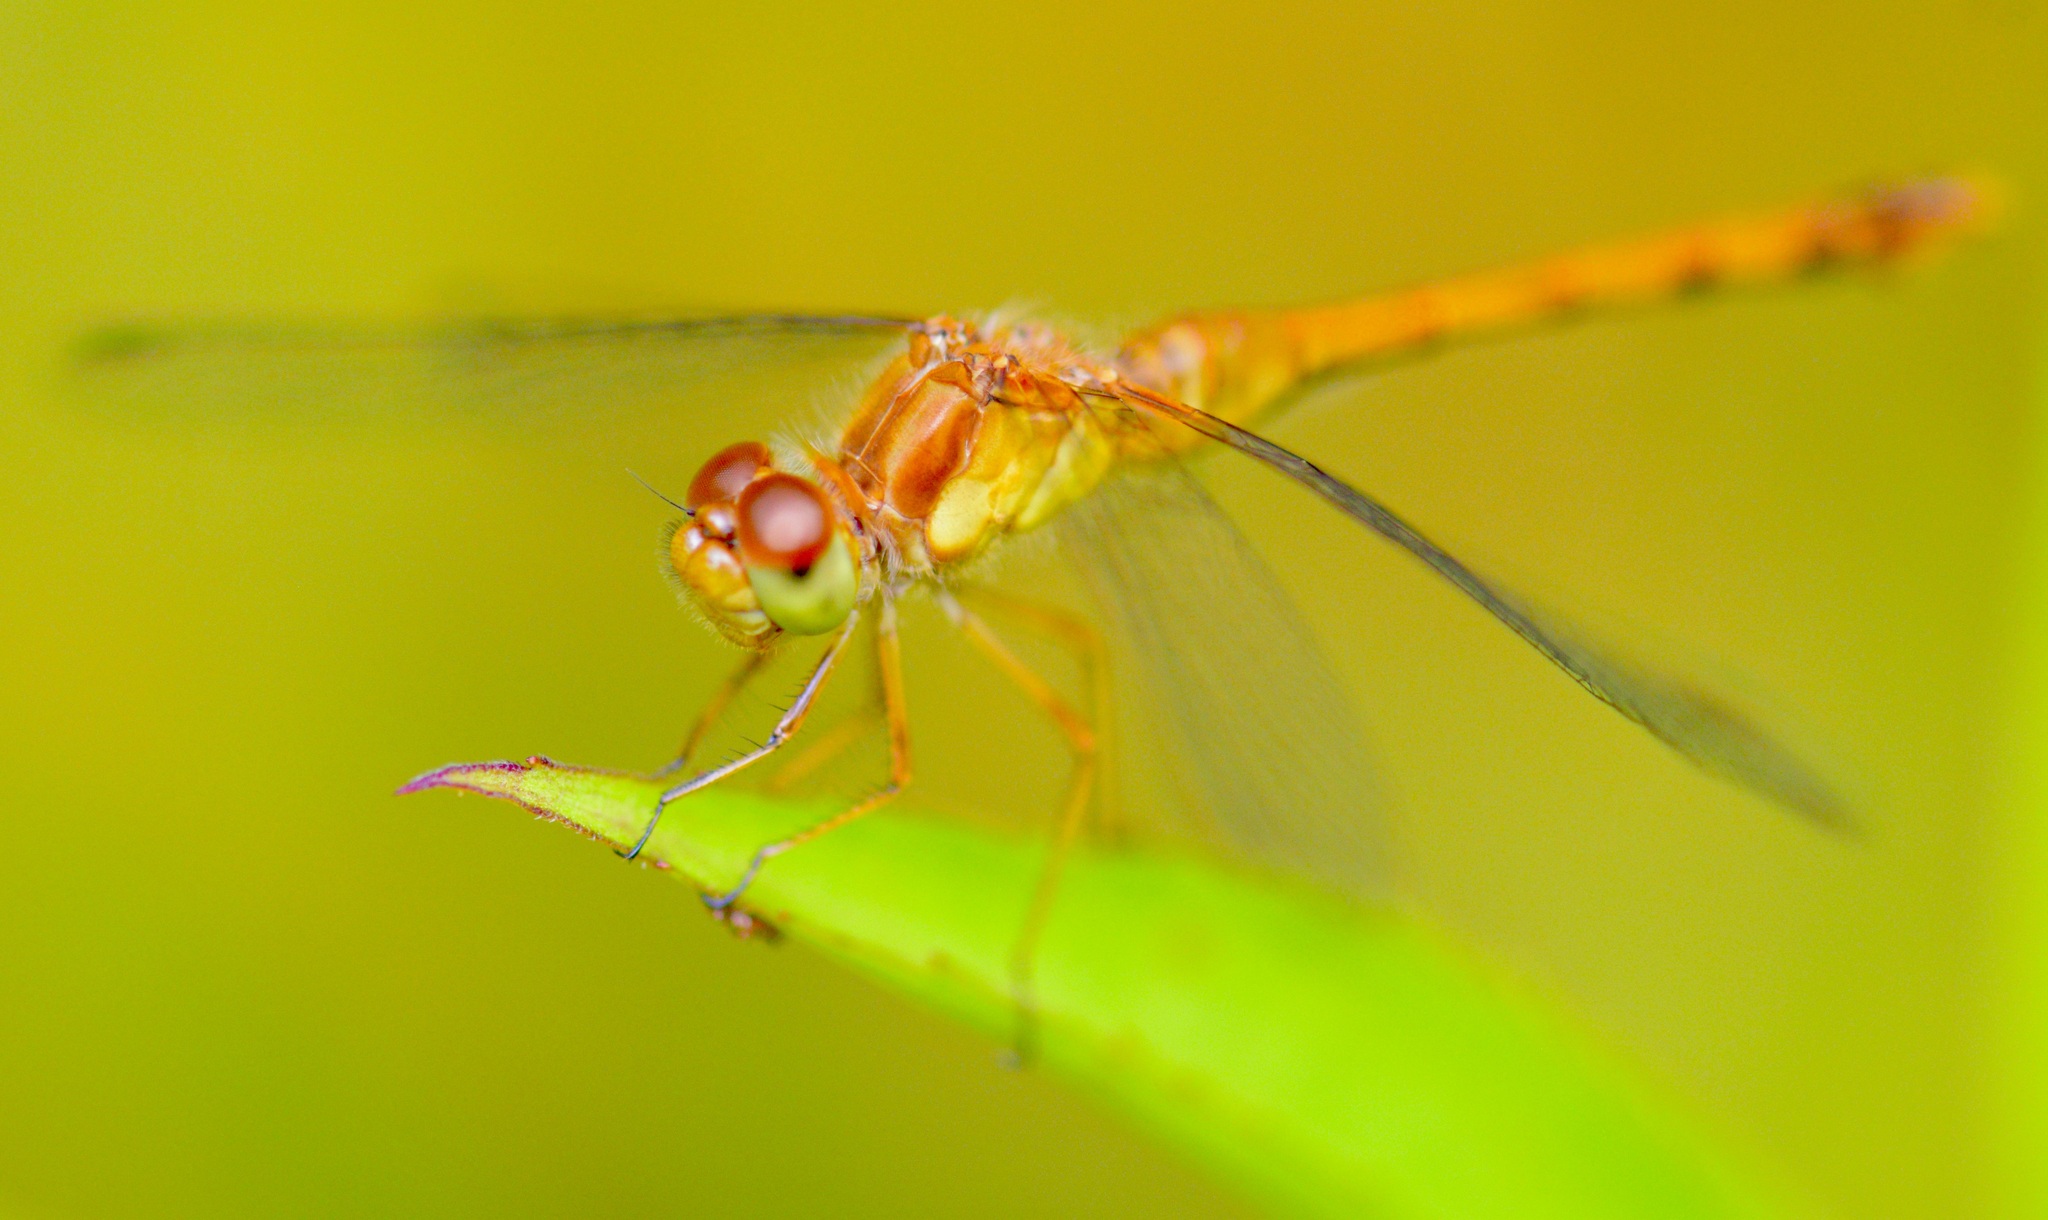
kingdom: Animalia
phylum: Arthropoda
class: Insecta
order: Odonata
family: Libellulidae
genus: Sympetrum
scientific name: Sympetrum vicinum
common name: Autumn meadowhawk
